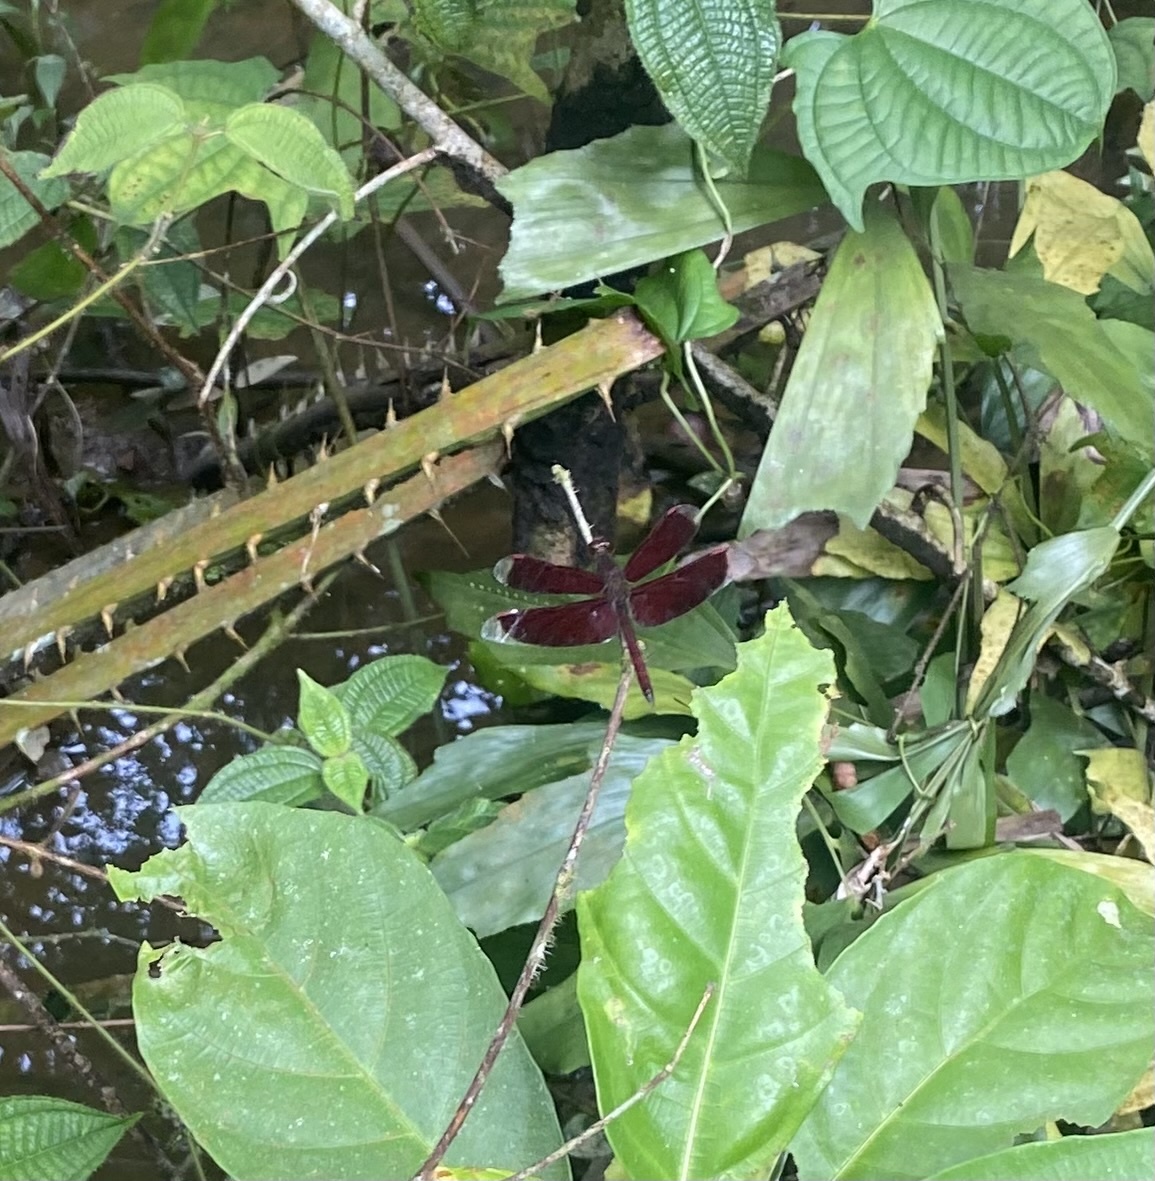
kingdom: Animalia
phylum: Arthropoda
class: Insecta
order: Odonata
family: Libellulidae
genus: Neurothemis
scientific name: Neurothemis fluctuans
